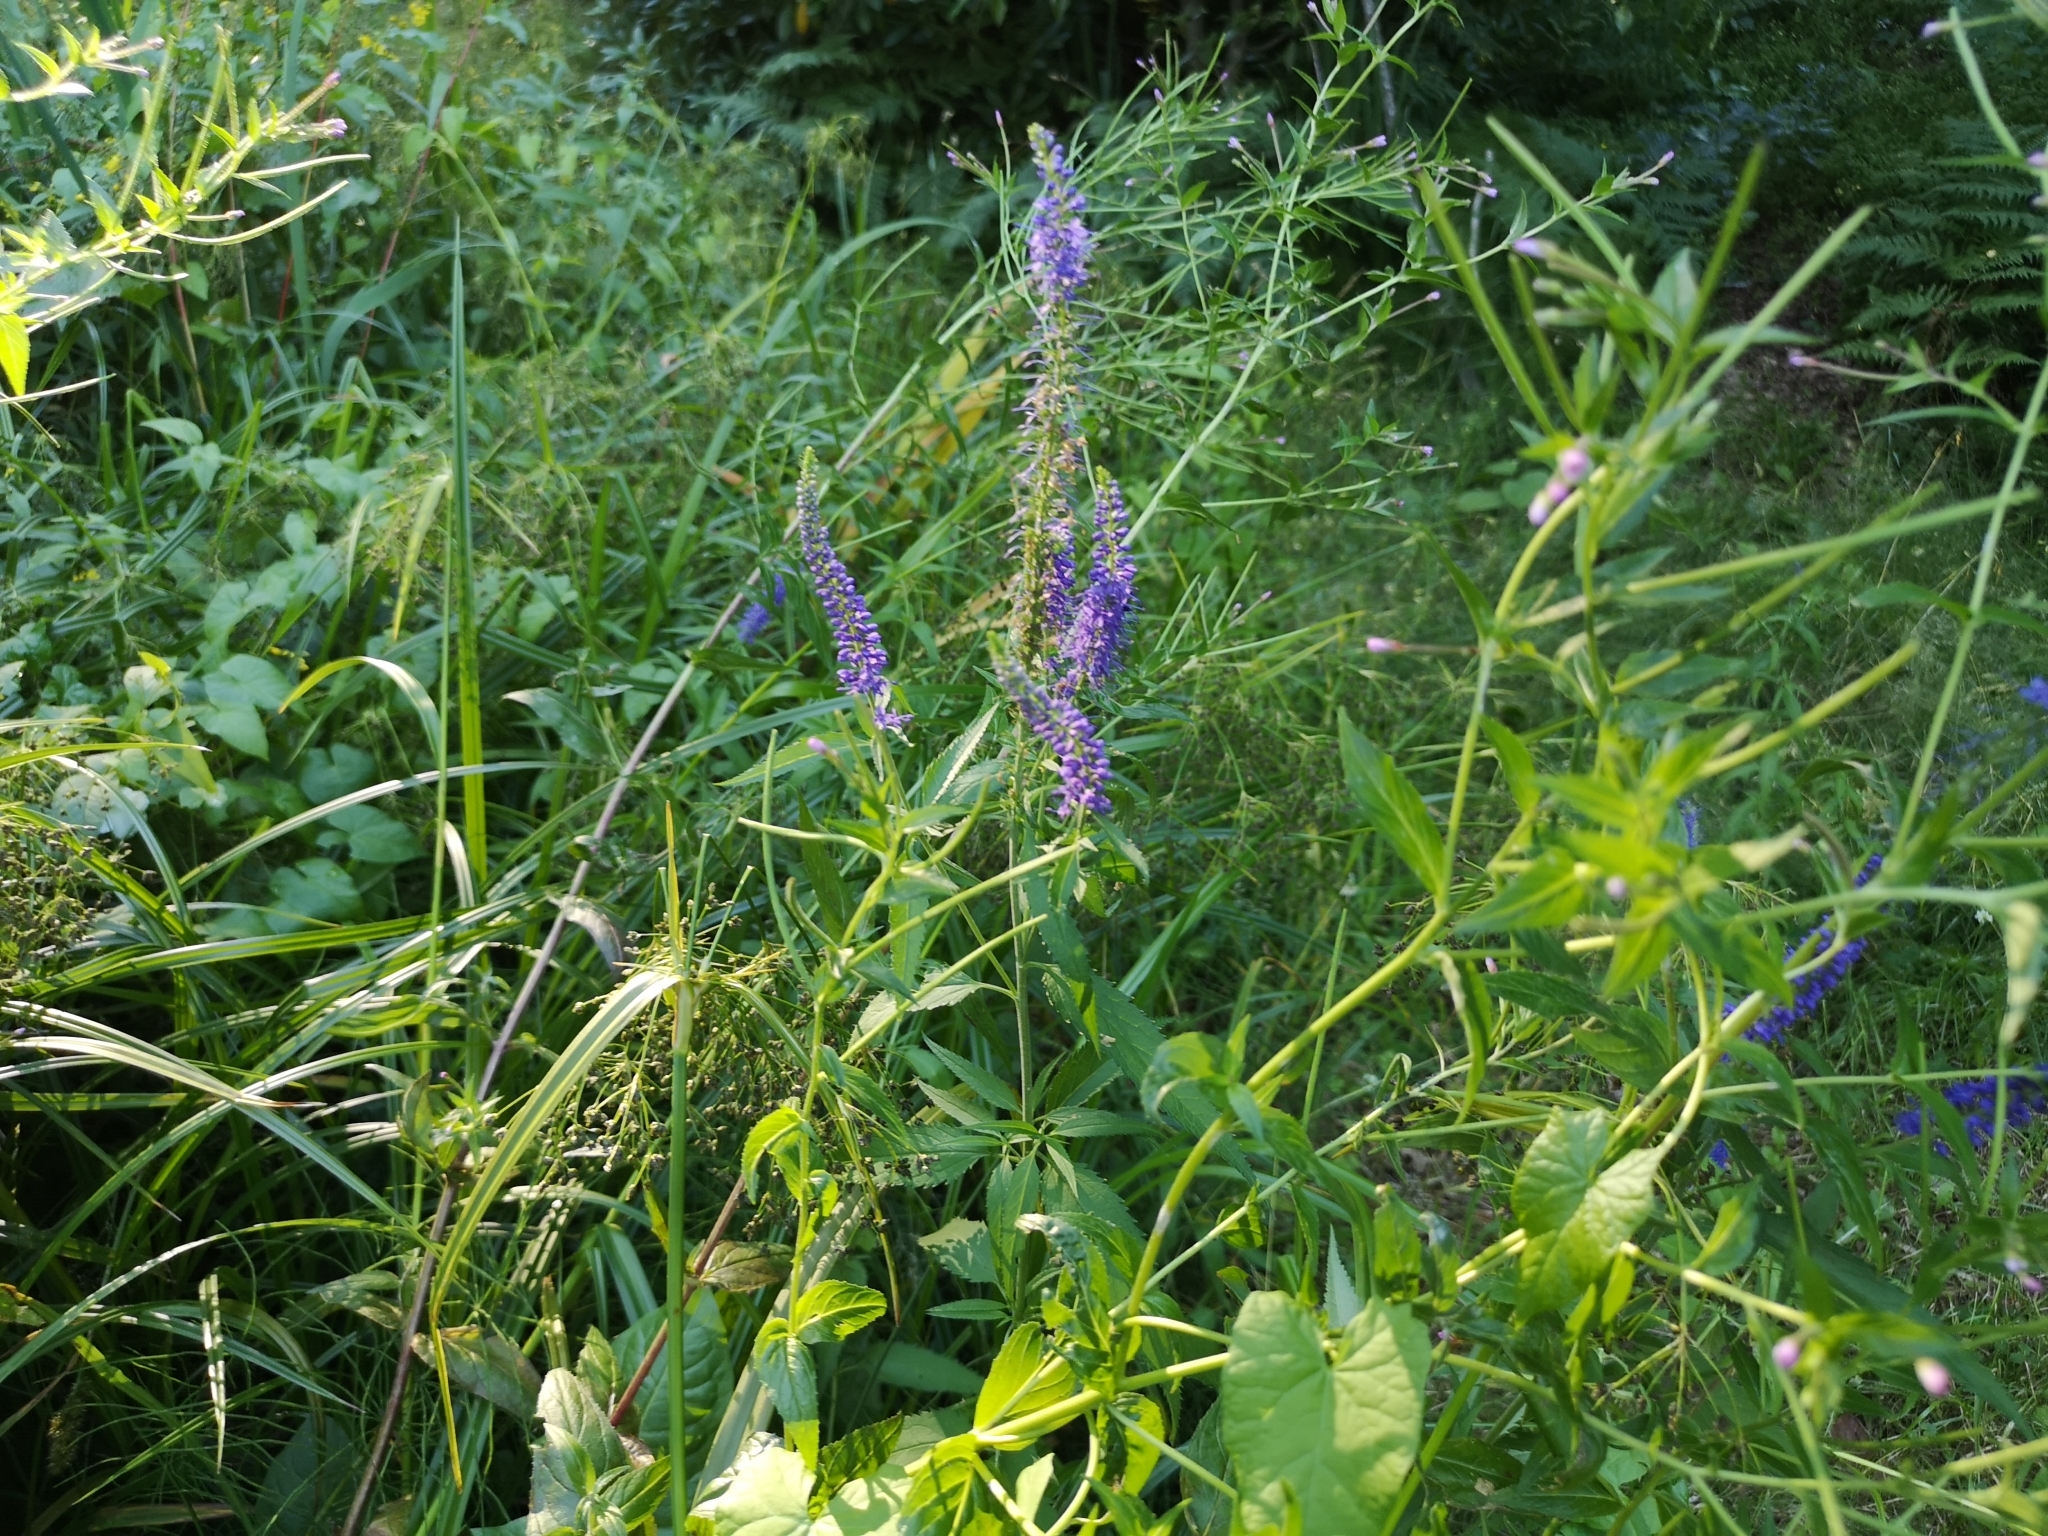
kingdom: Plantae
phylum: Tracheophyta
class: Magnoliopsida
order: Lamiales
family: Plantaginaceae
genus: Veronica
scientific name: Veronica longifolia
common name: Garden speedwell
